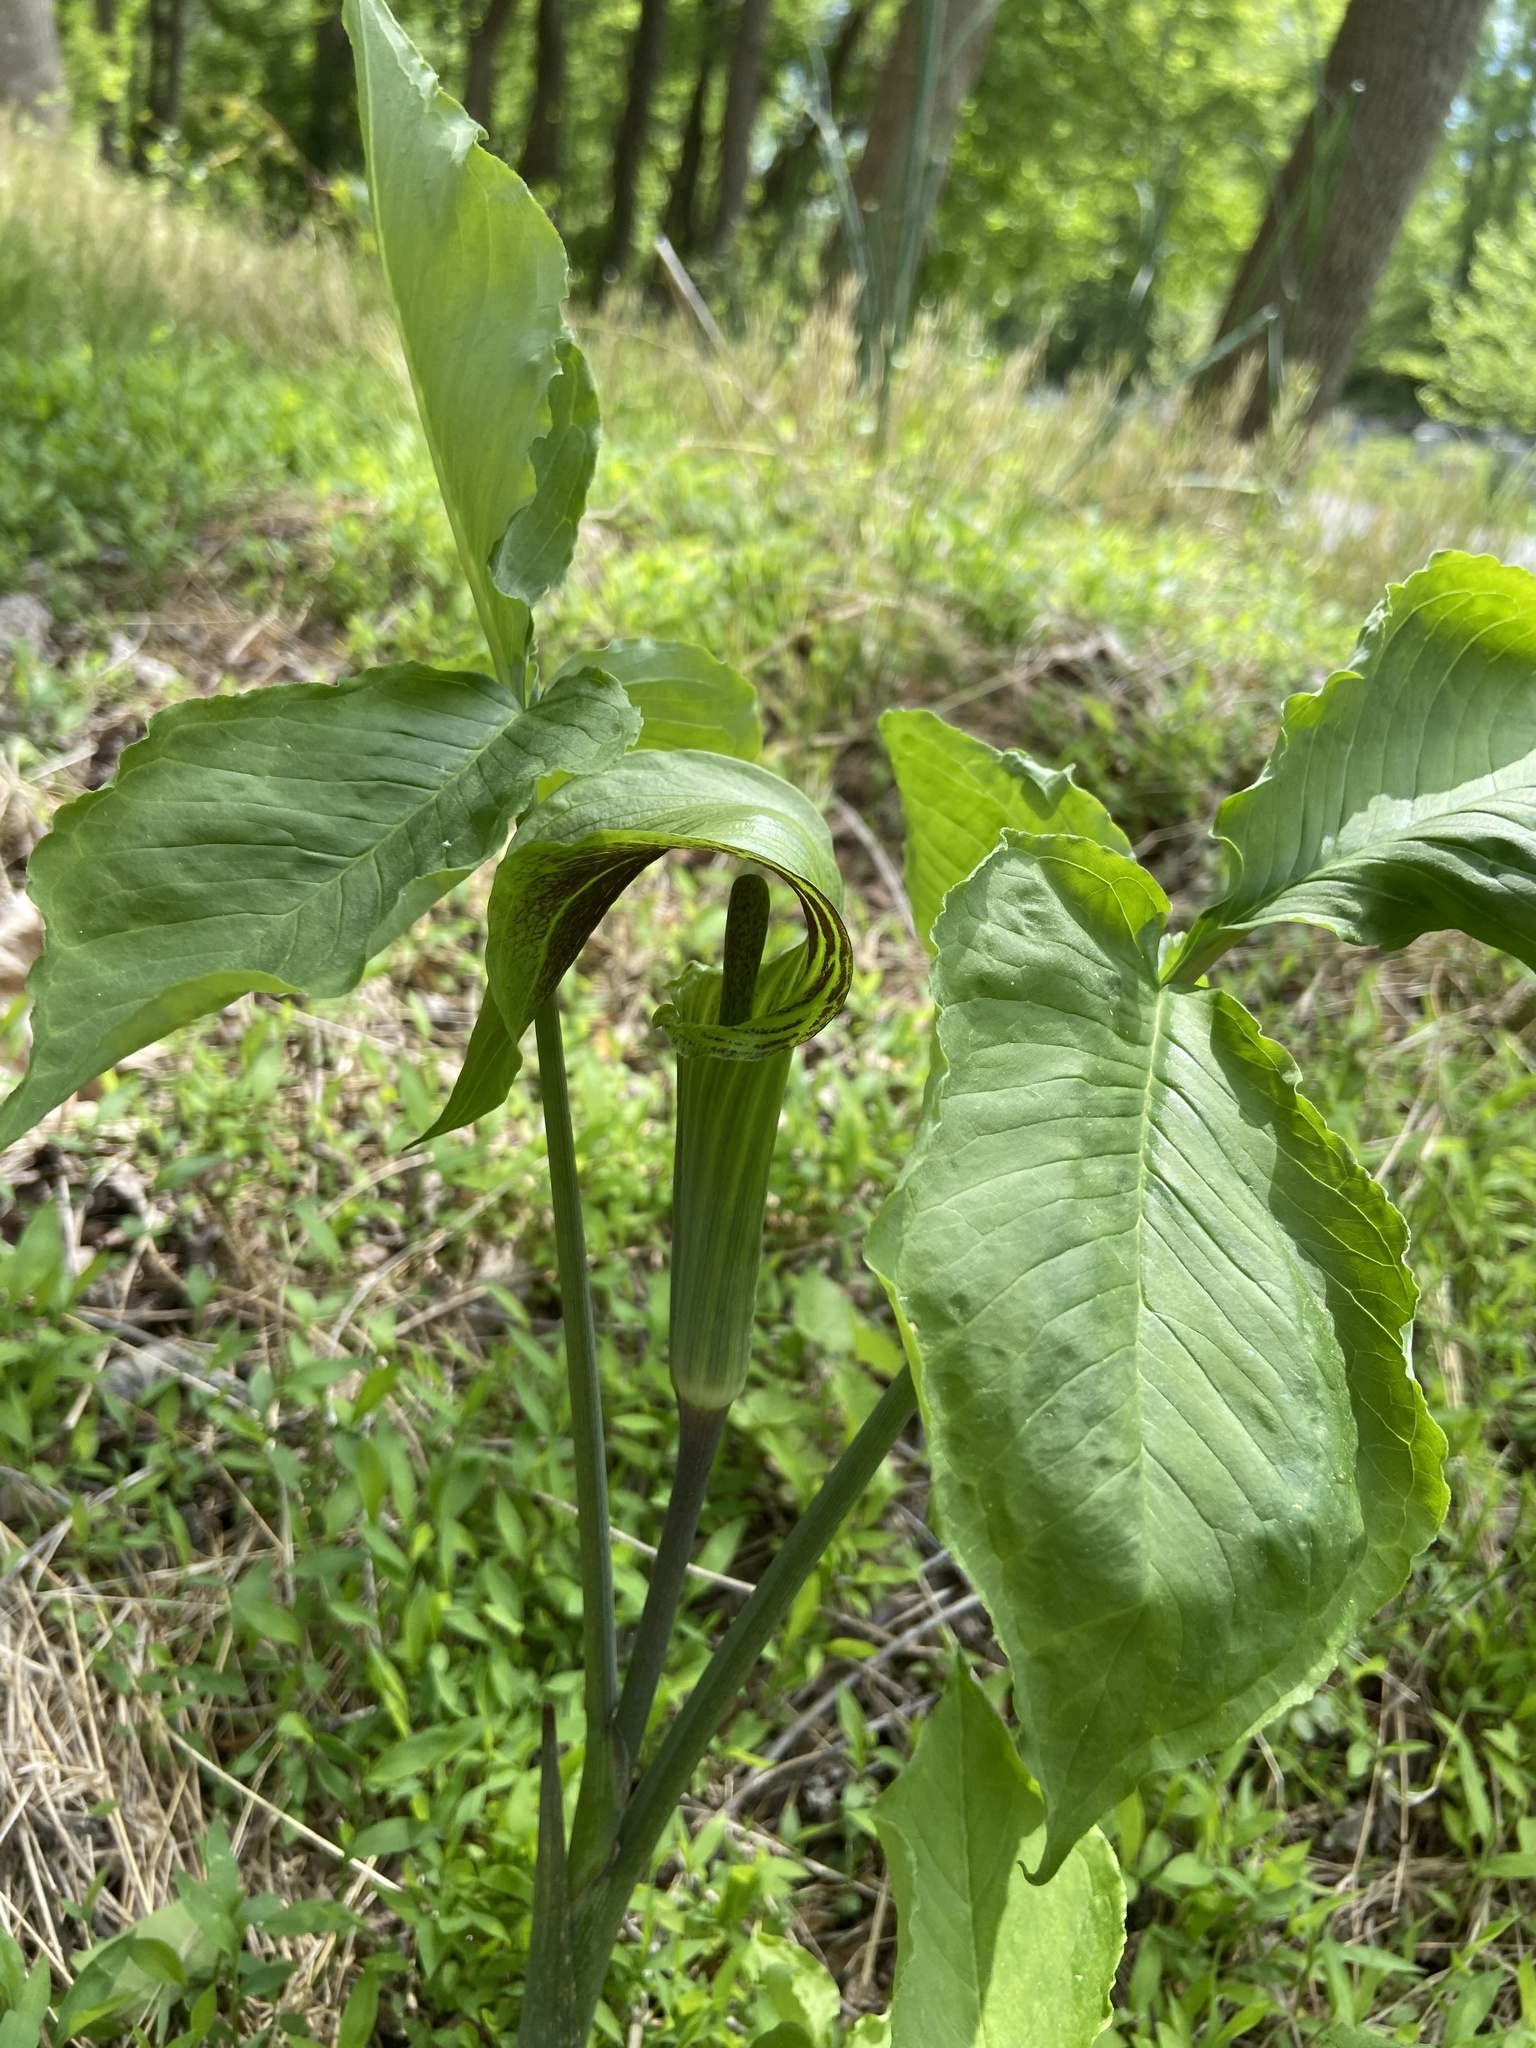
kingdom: Plantae
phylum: Tracheophyta
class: Liliopsida
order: Alismatales
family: Araceae
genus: Arisaema
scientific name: Arisaema triphyllum
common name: Jack-in-the-pulpit
